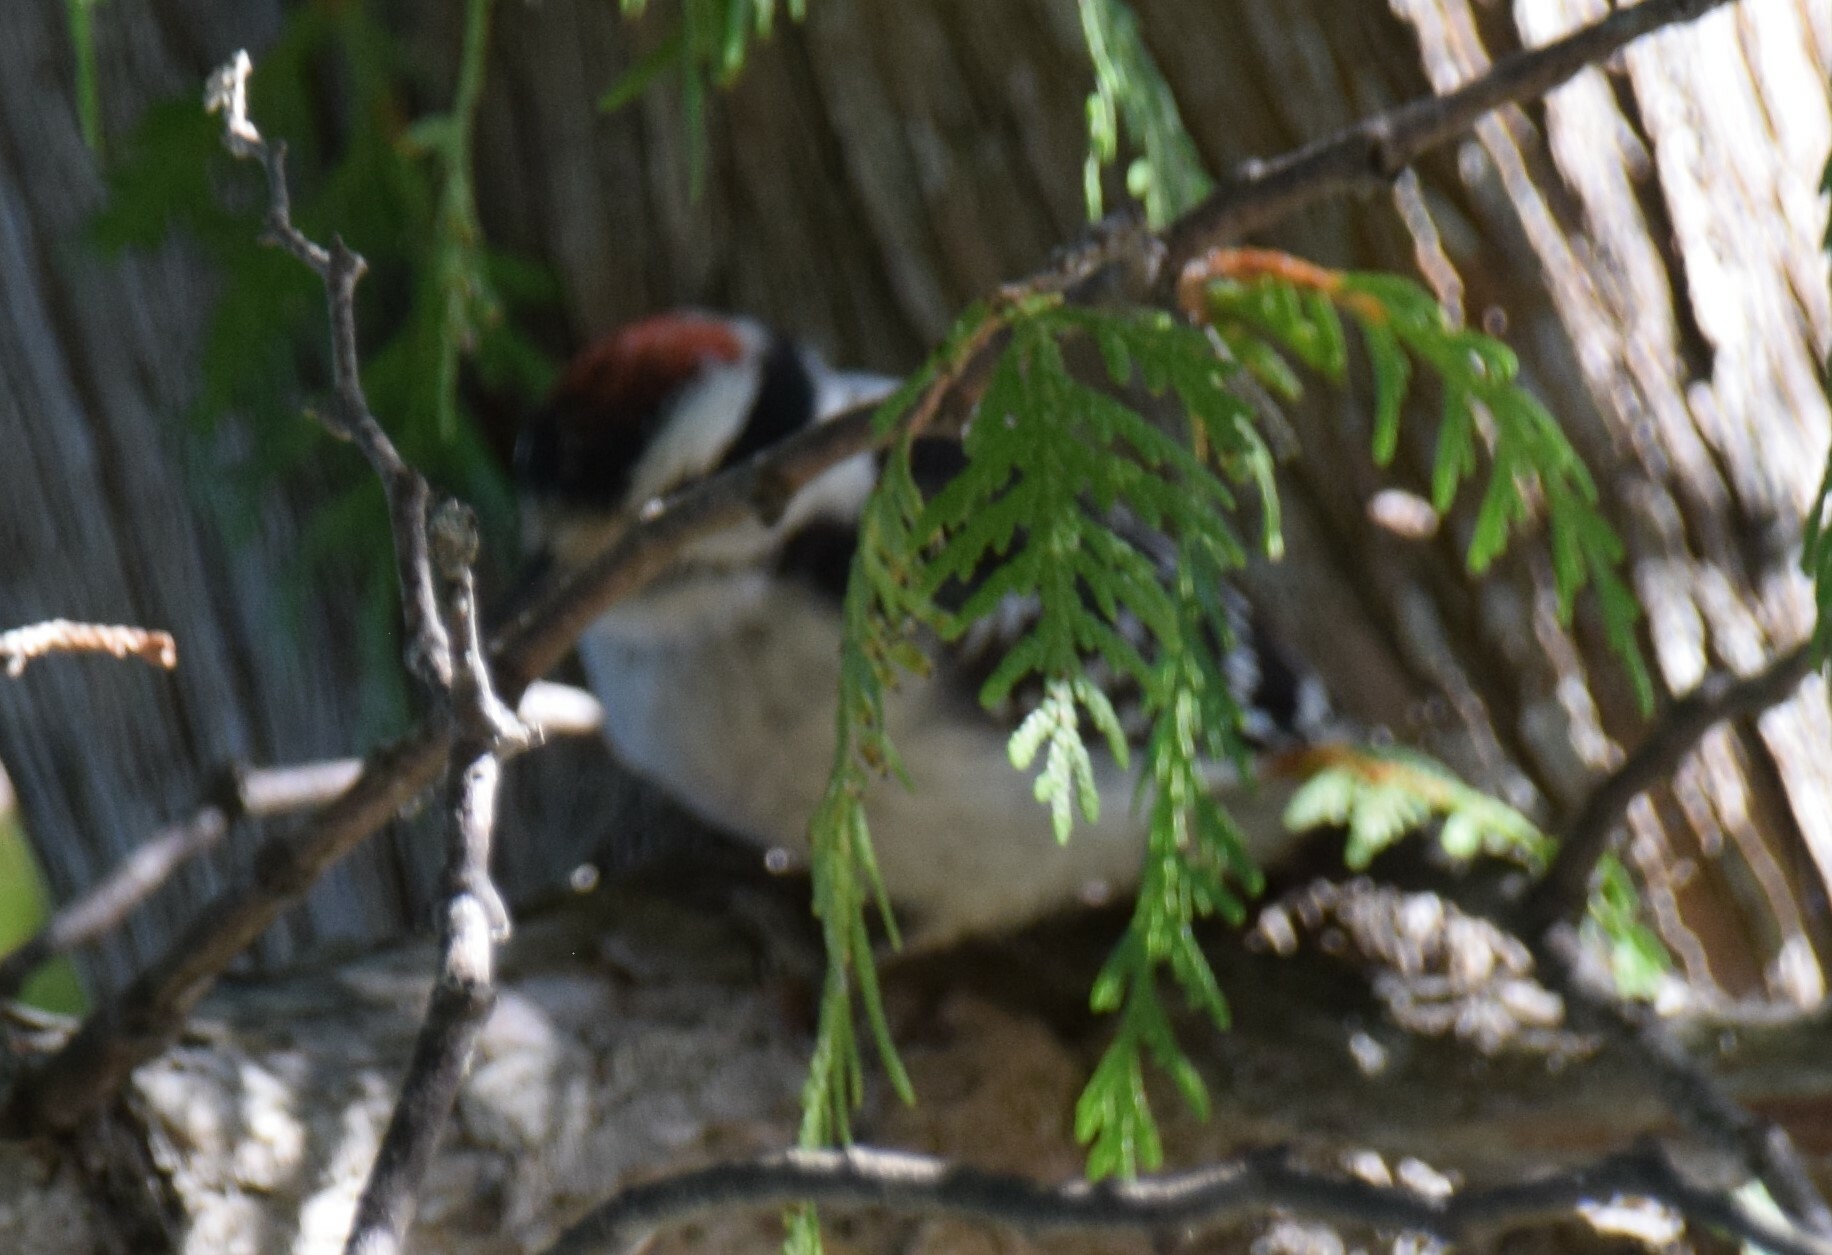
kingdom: Animalia
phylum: Chordata
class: Aves
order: Piciformes
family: Picidae
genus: Dryobates
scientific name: Dryobates pubescens
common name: Downy woodpecker
